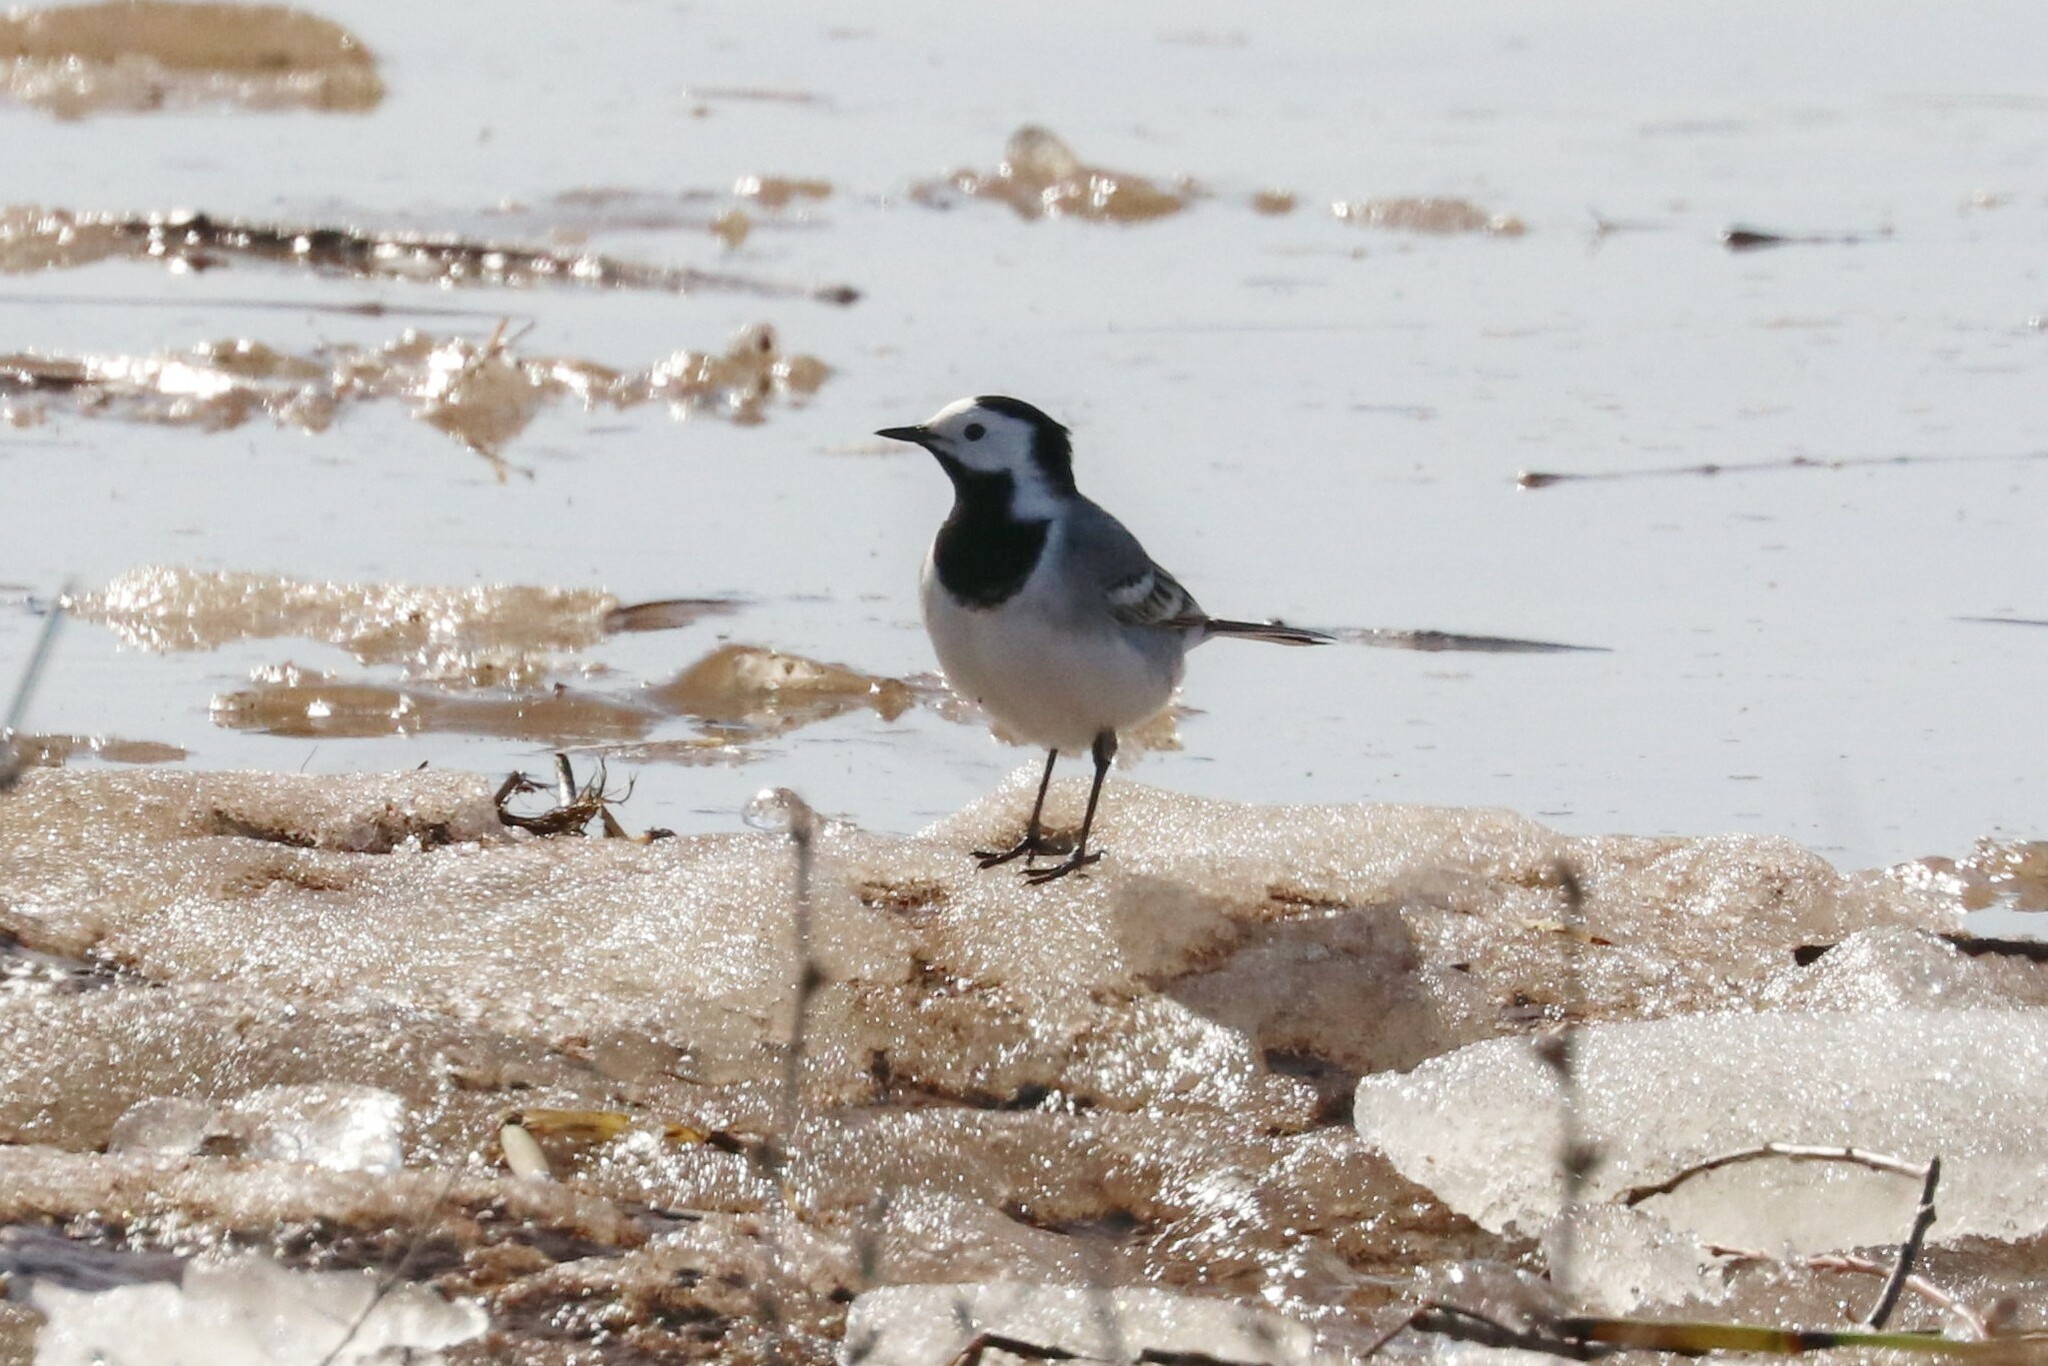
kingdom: Animalia
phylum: Chordata
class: Aves
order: Passeriformes
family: Motacillidae
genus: Motacilla
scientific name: Motacilla alba
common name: White wagtail
